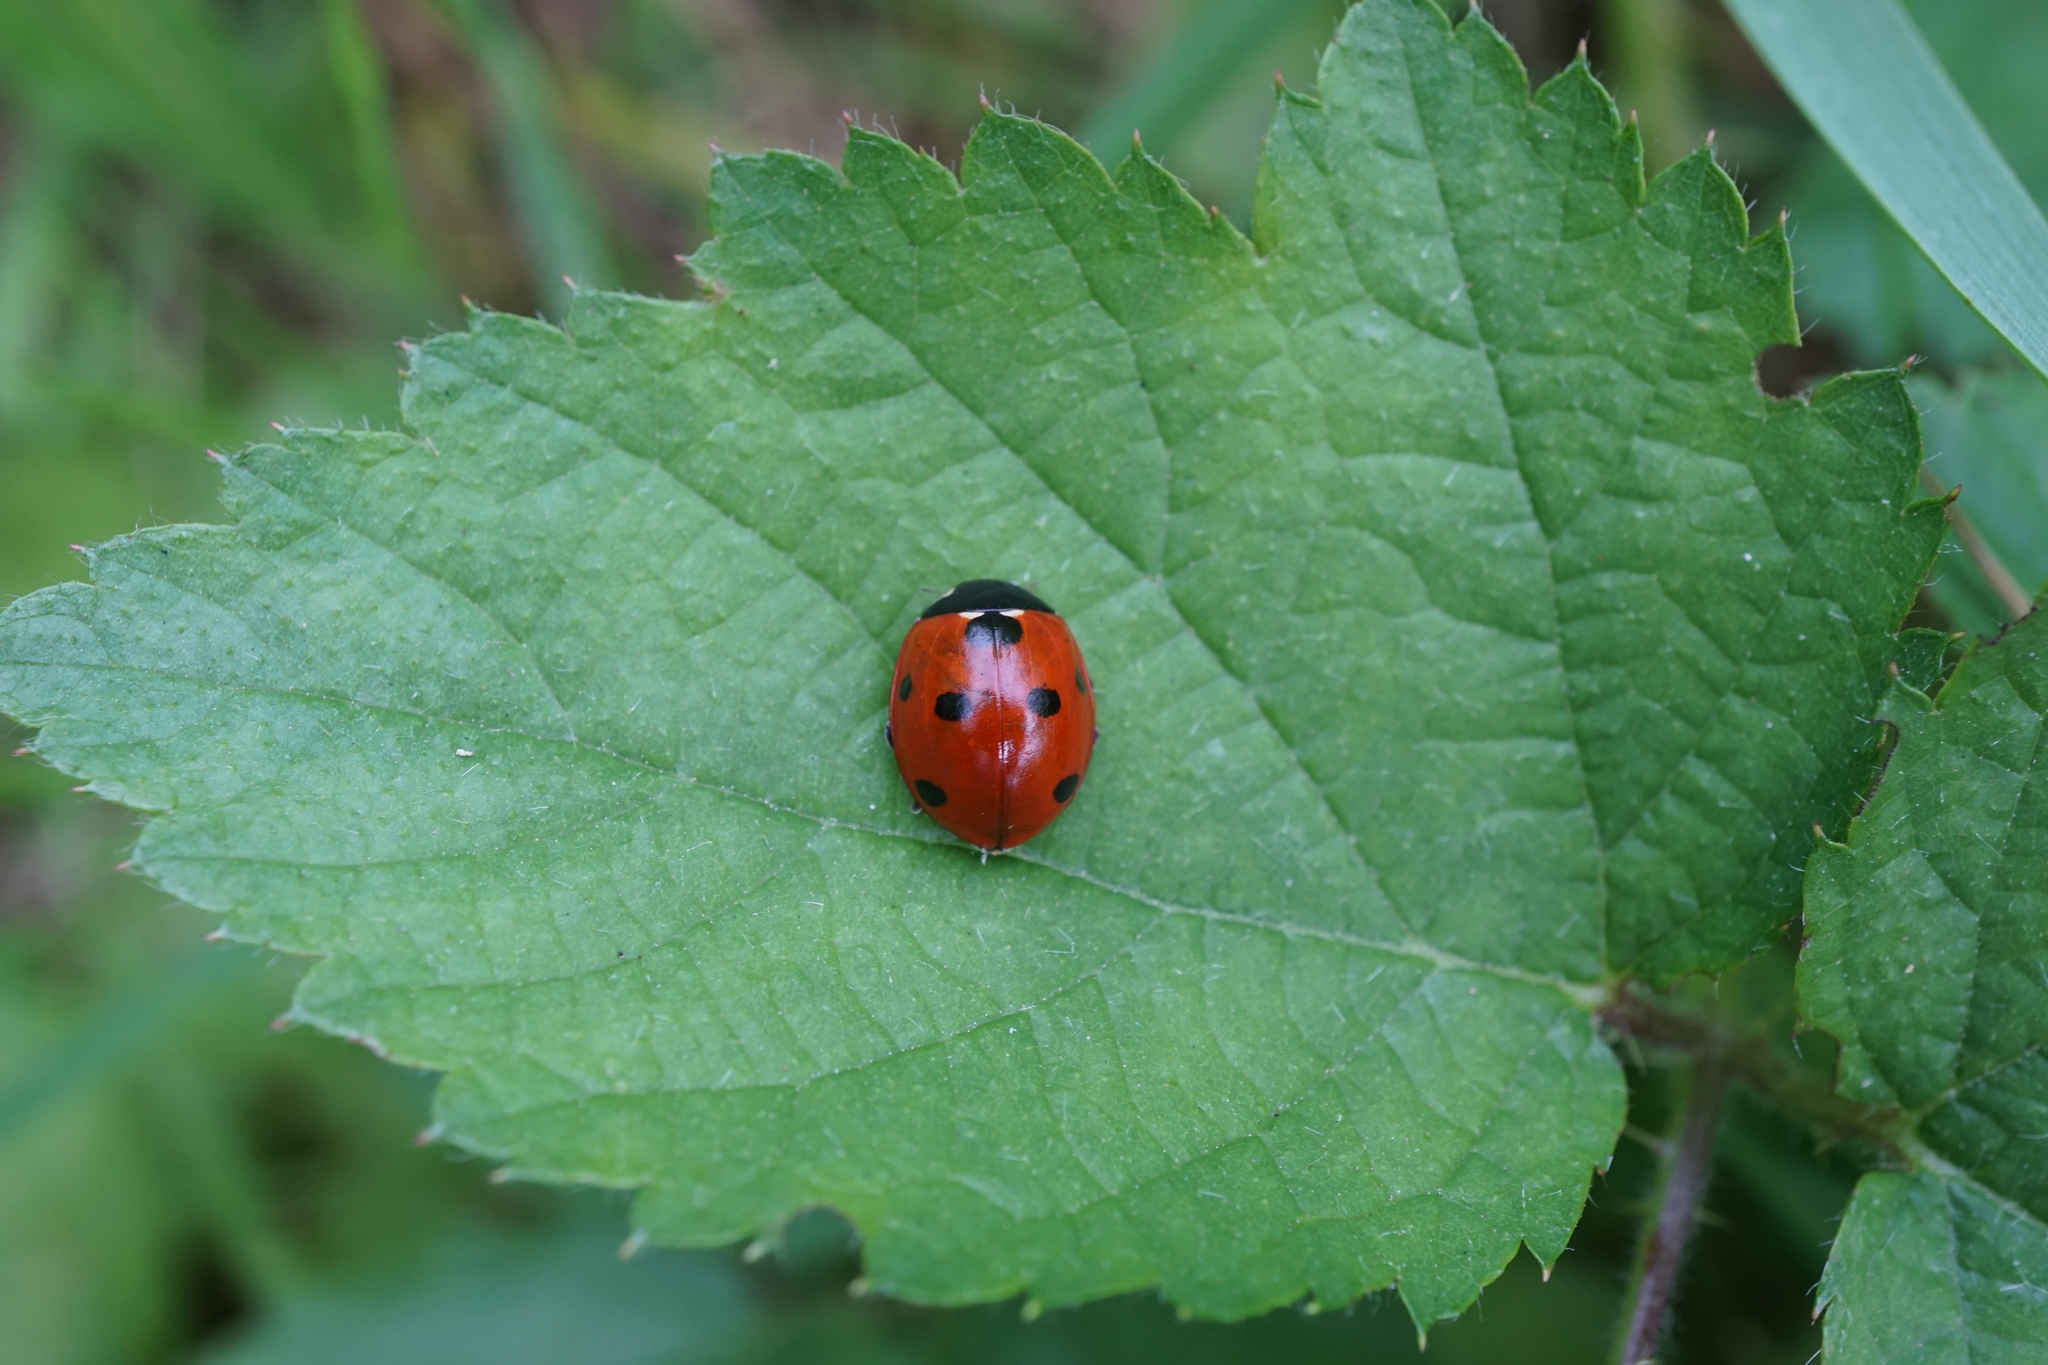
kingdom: Animalia
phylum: Arthropoda
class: Insecta
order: Coleoptera
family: Coccinellidae
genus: Coccinella
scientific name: Coccinella septempunctata
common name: Sevenspotted lady beetle
